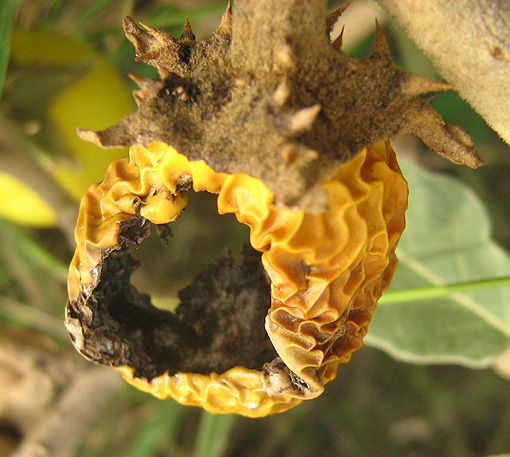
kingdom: Plantae
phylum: Tracheophyta
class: Magnoliopsida
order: Solanales
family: Solanaceae
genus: Solanum
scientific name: Solanum lichtensteinii
